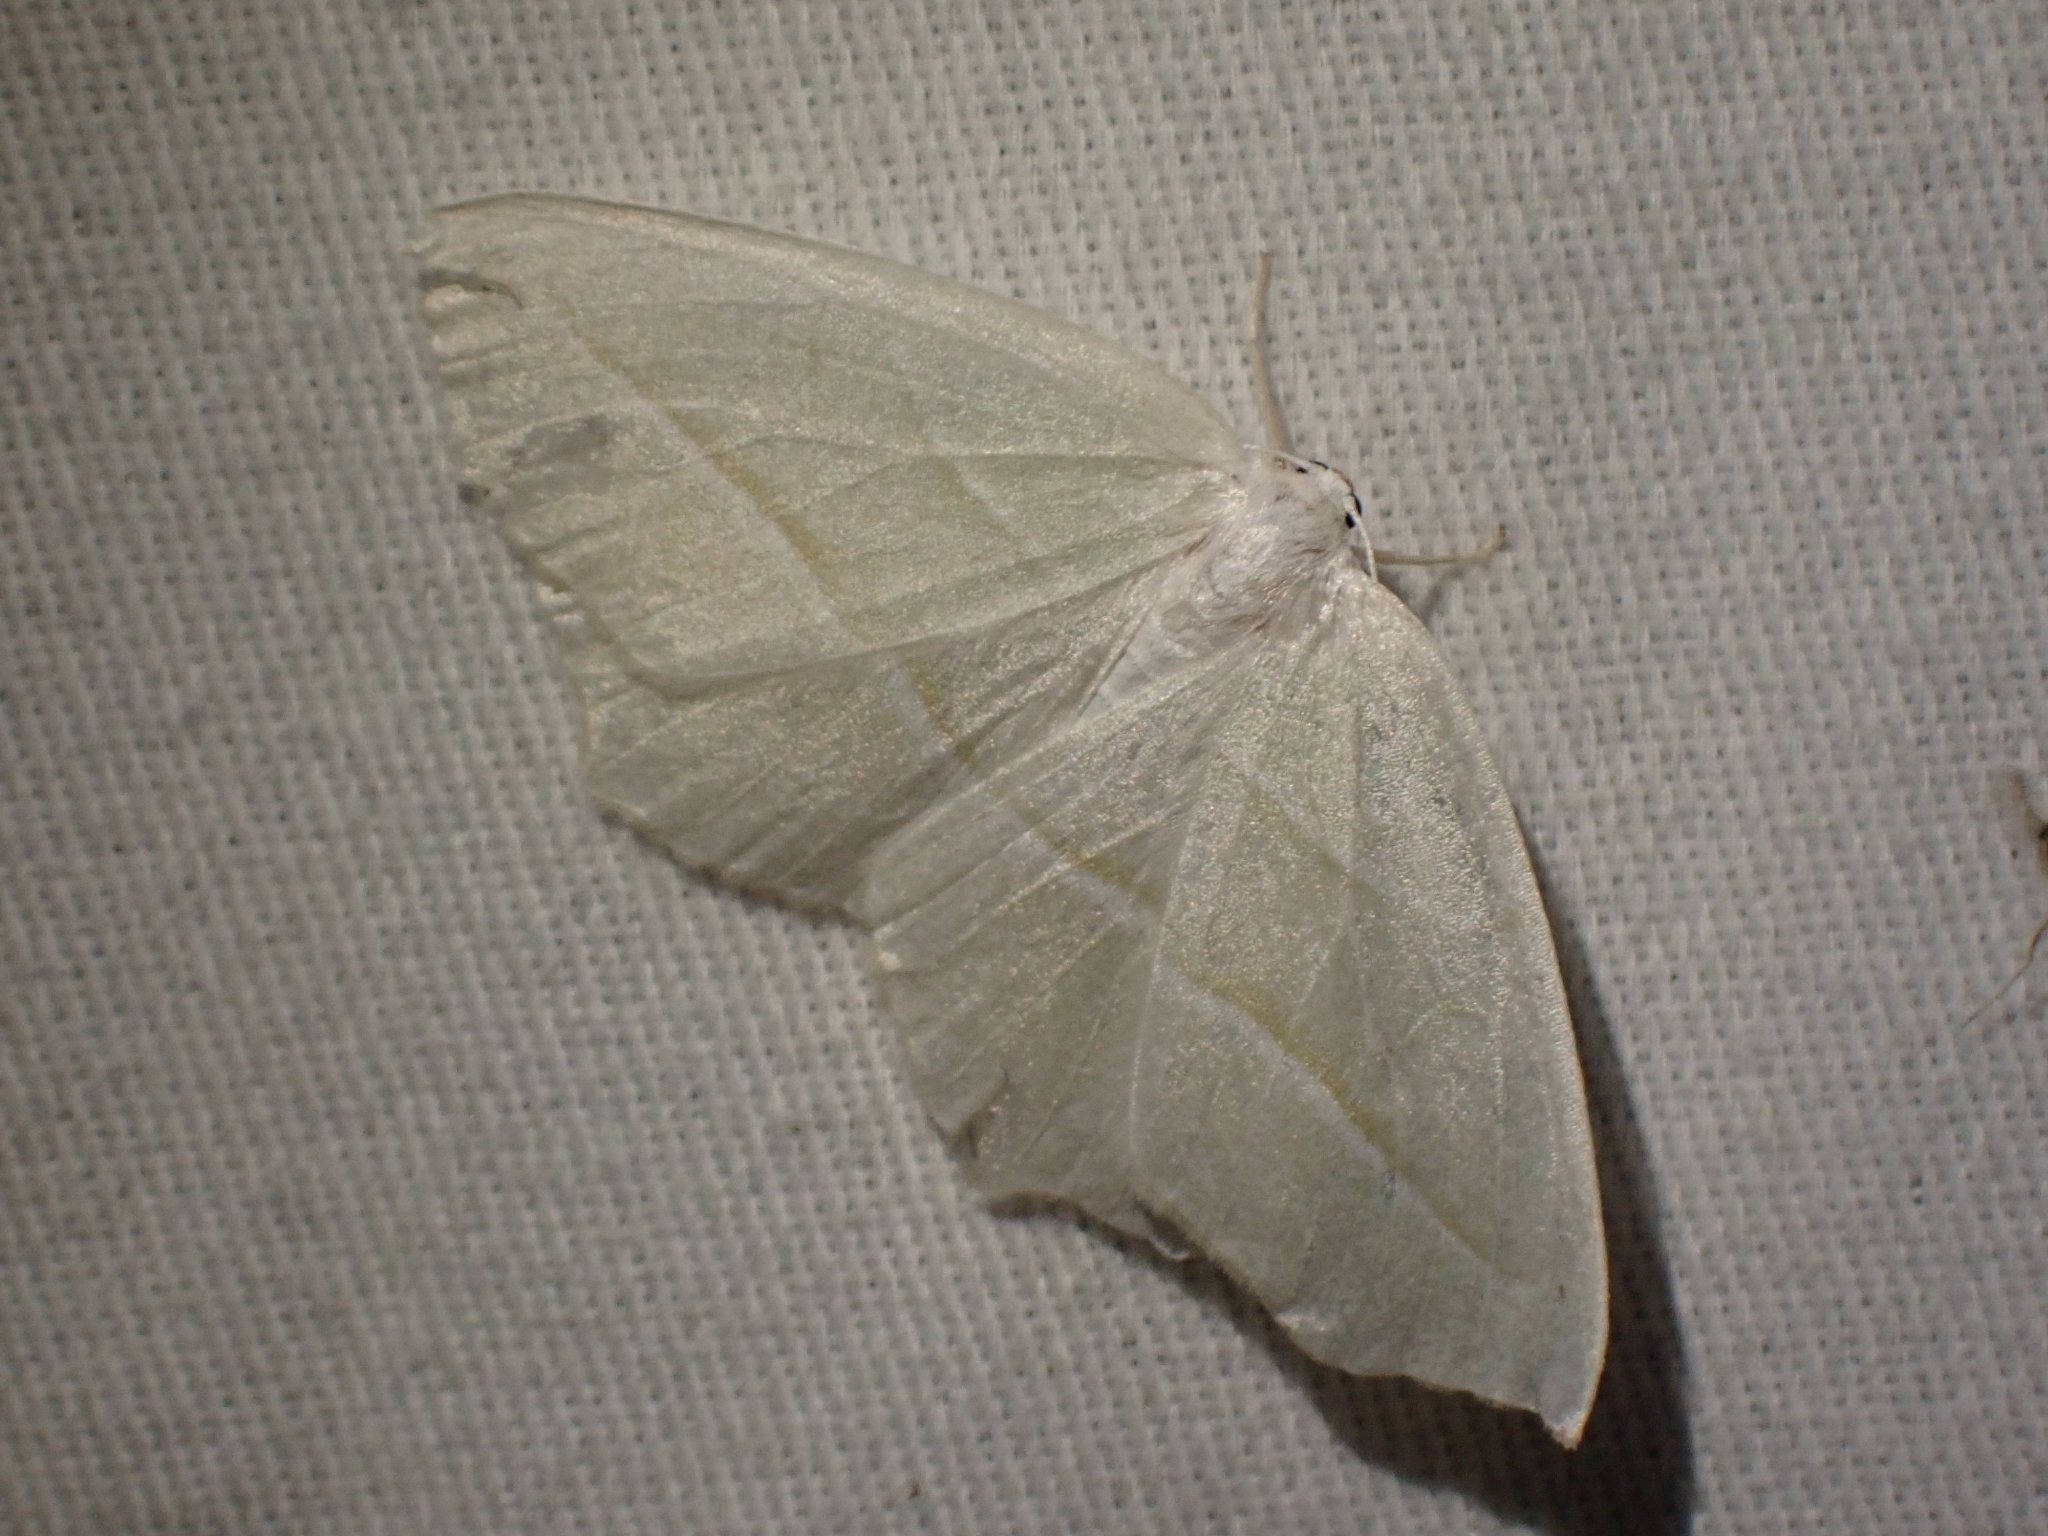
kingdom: Animalia
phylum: Arthropoda
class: Insecta
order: Lepidoptera
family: Geometridae
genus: Campaea
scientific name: Campaea perlata
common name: Fringed looper
